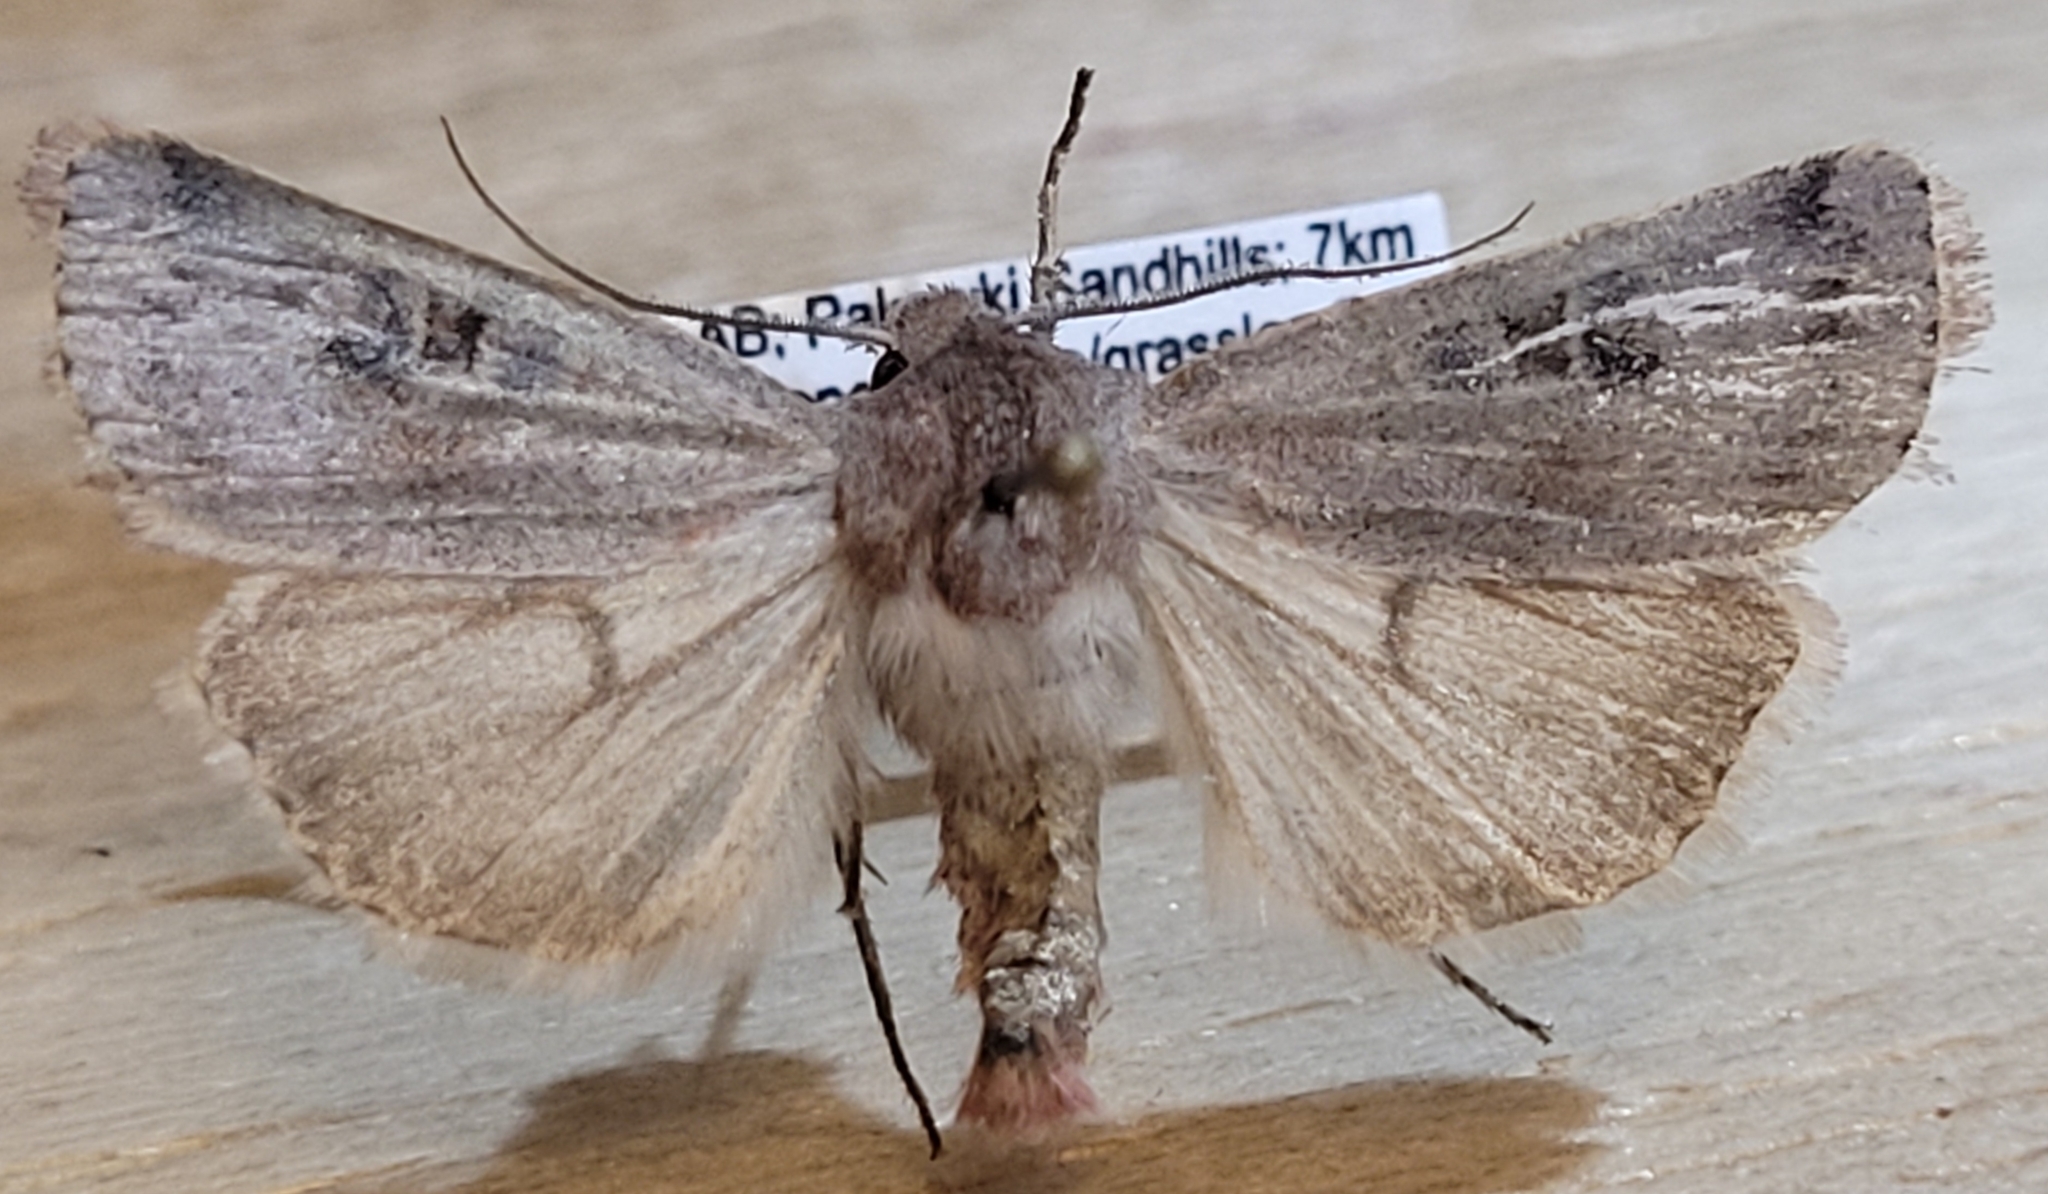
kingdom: Animalia
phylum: Arthropoda
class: Insecta
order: Lepidoptera
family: Noctuidae
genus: Euxoa
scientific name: Euxoa munis
